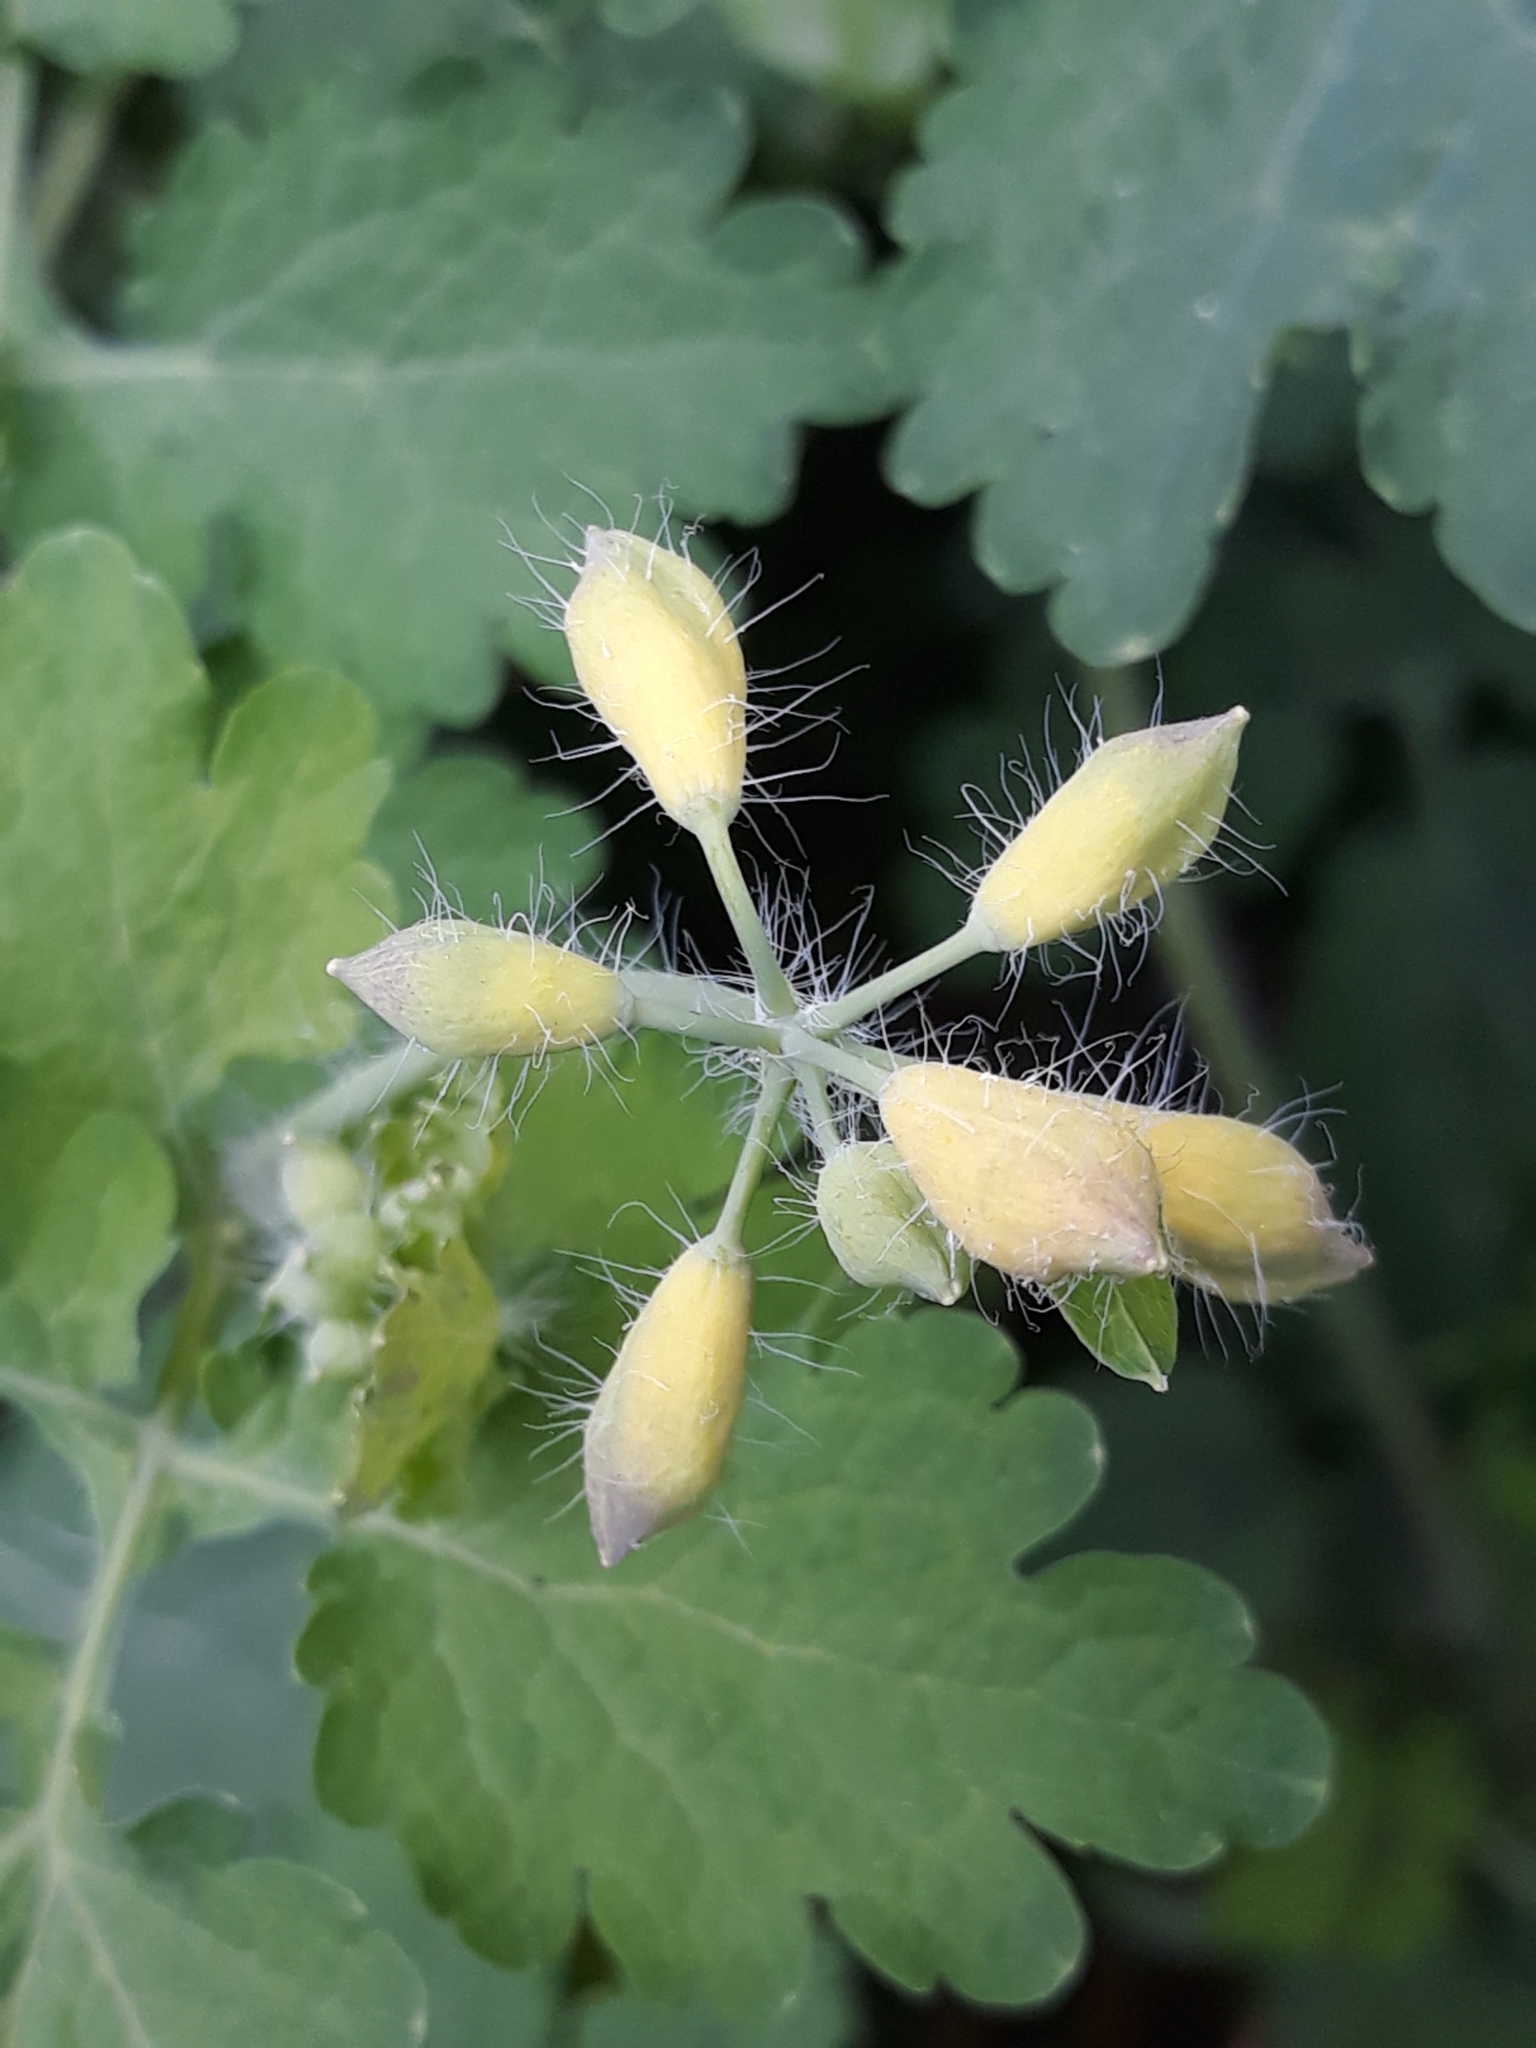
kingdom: Plantae
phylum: Tracheophyta
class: Magnoliopsida
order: Ranunculales
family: Papaveraceae
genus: Chelidonium
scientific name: Chelidonium majus
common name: Greater celandine
